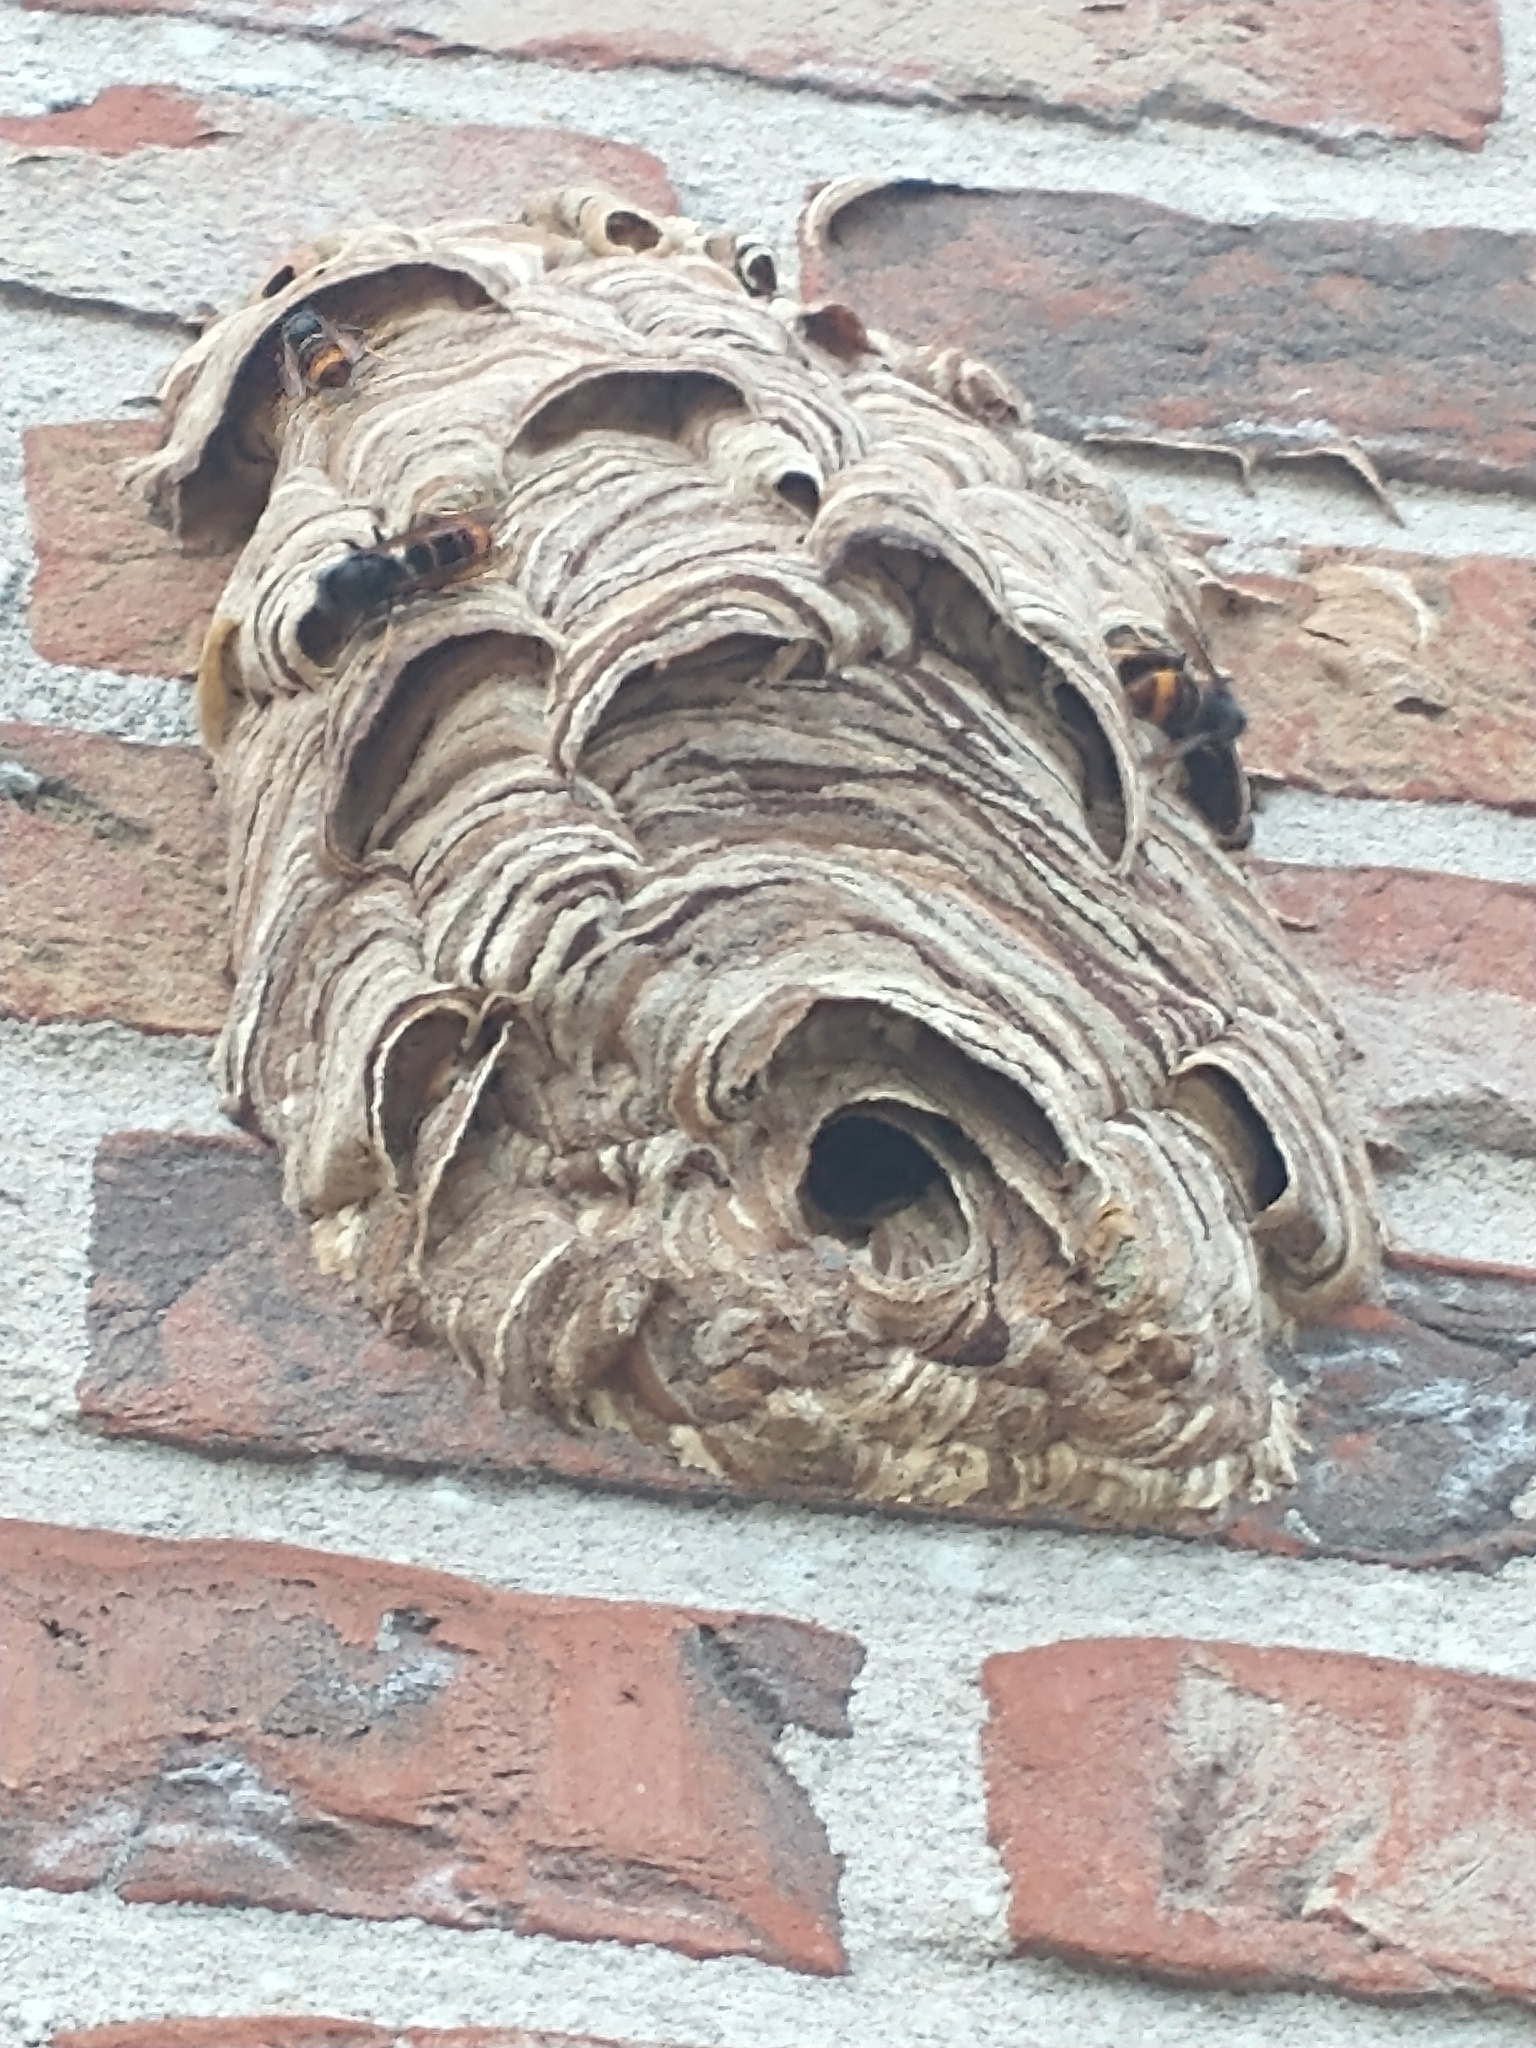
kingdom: Animalia
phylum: Arthropoda
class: Insecta
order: Hymenoptera
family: Vespidae
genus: Vespa
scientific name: Vespa velutina
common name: Asian hornet
